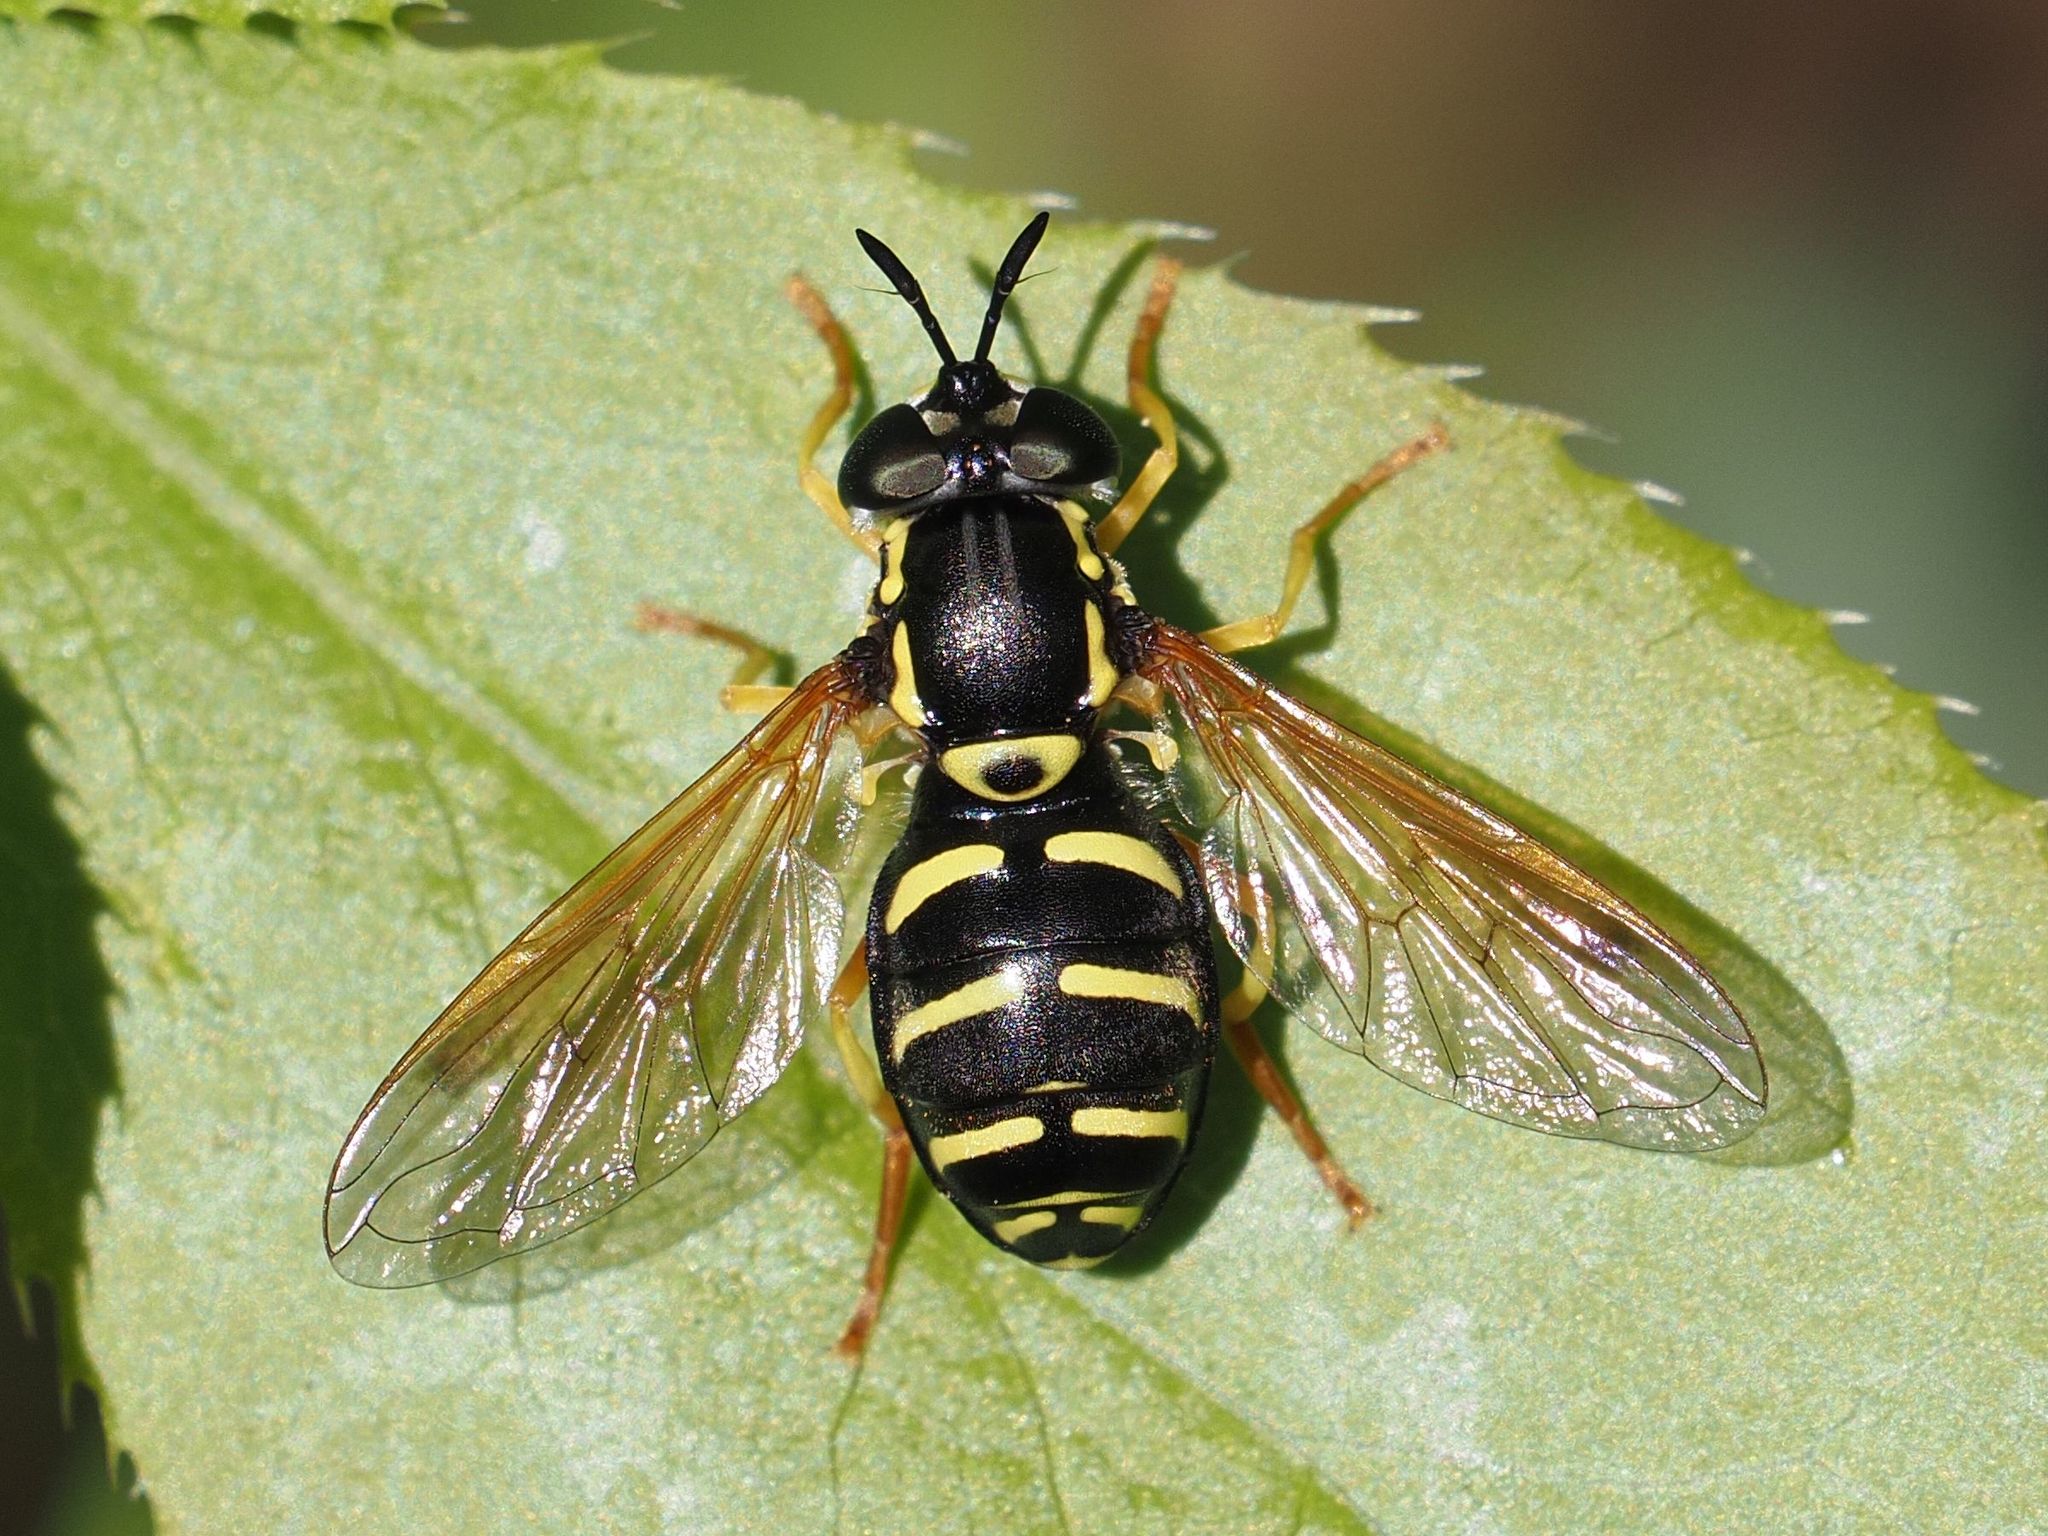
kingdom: Animalia
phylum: Arthropoda
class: Insecta
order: Diptera
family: Syrphidae
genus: Chrysotoxum
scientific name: Chrysotoxum festivum
